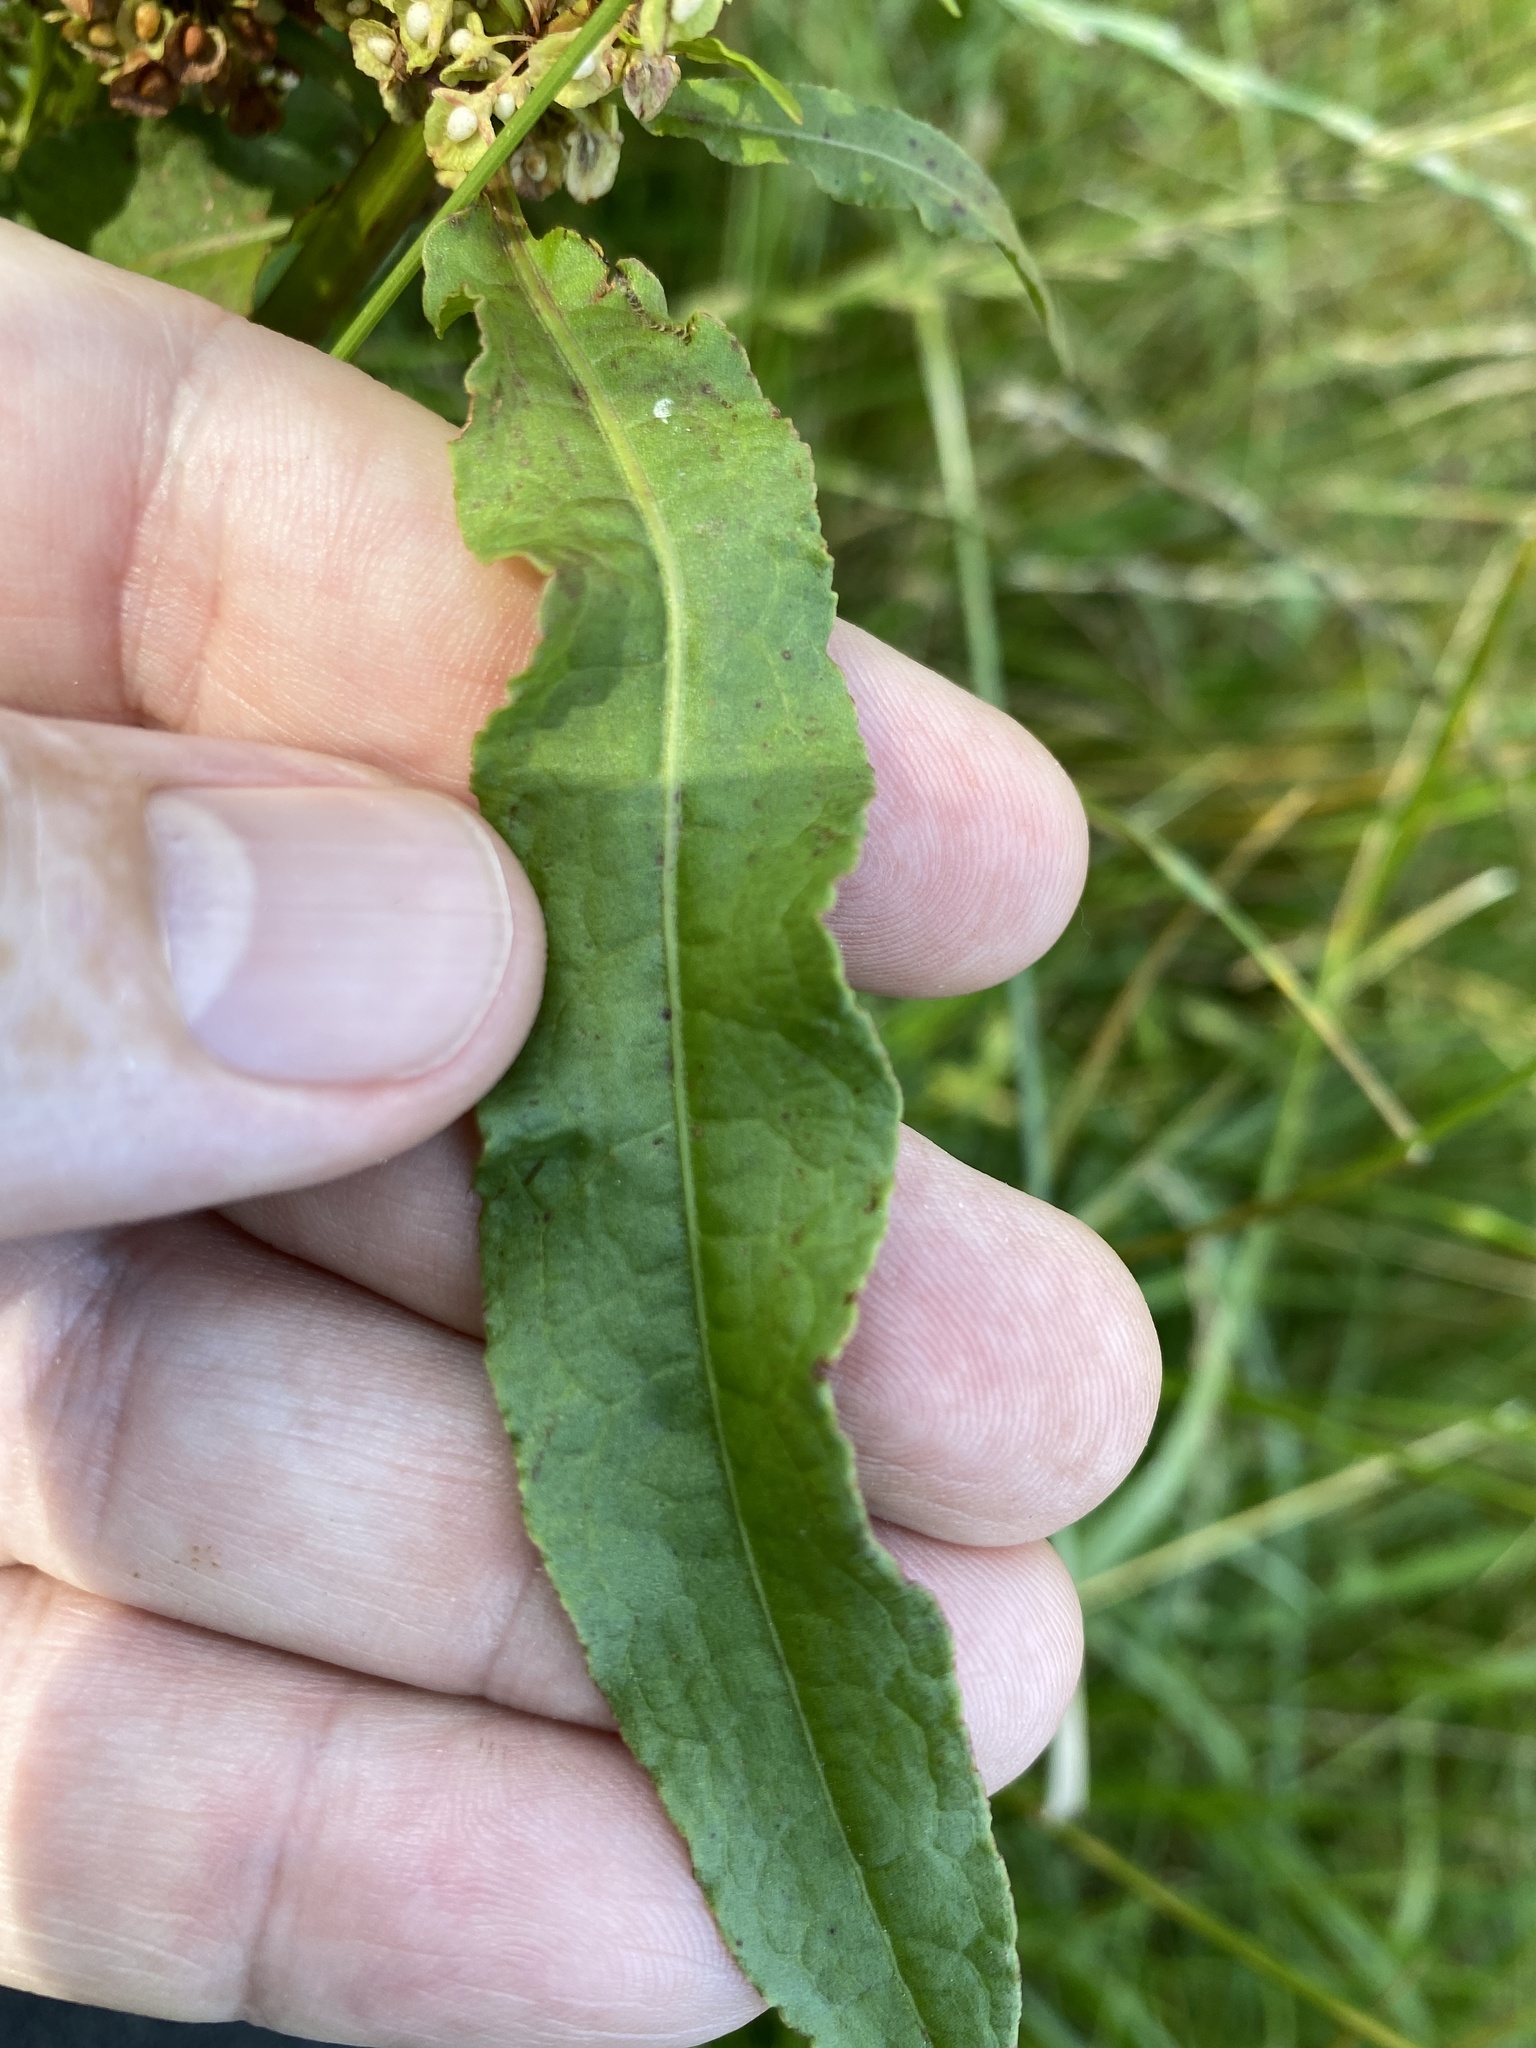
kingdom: Plantae
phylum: Tracheophyta
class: Magnoliopsida
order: Caryophyllales
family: Polygonaceae
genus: Rumex
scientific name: Rumex crispus
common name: Curled dock
